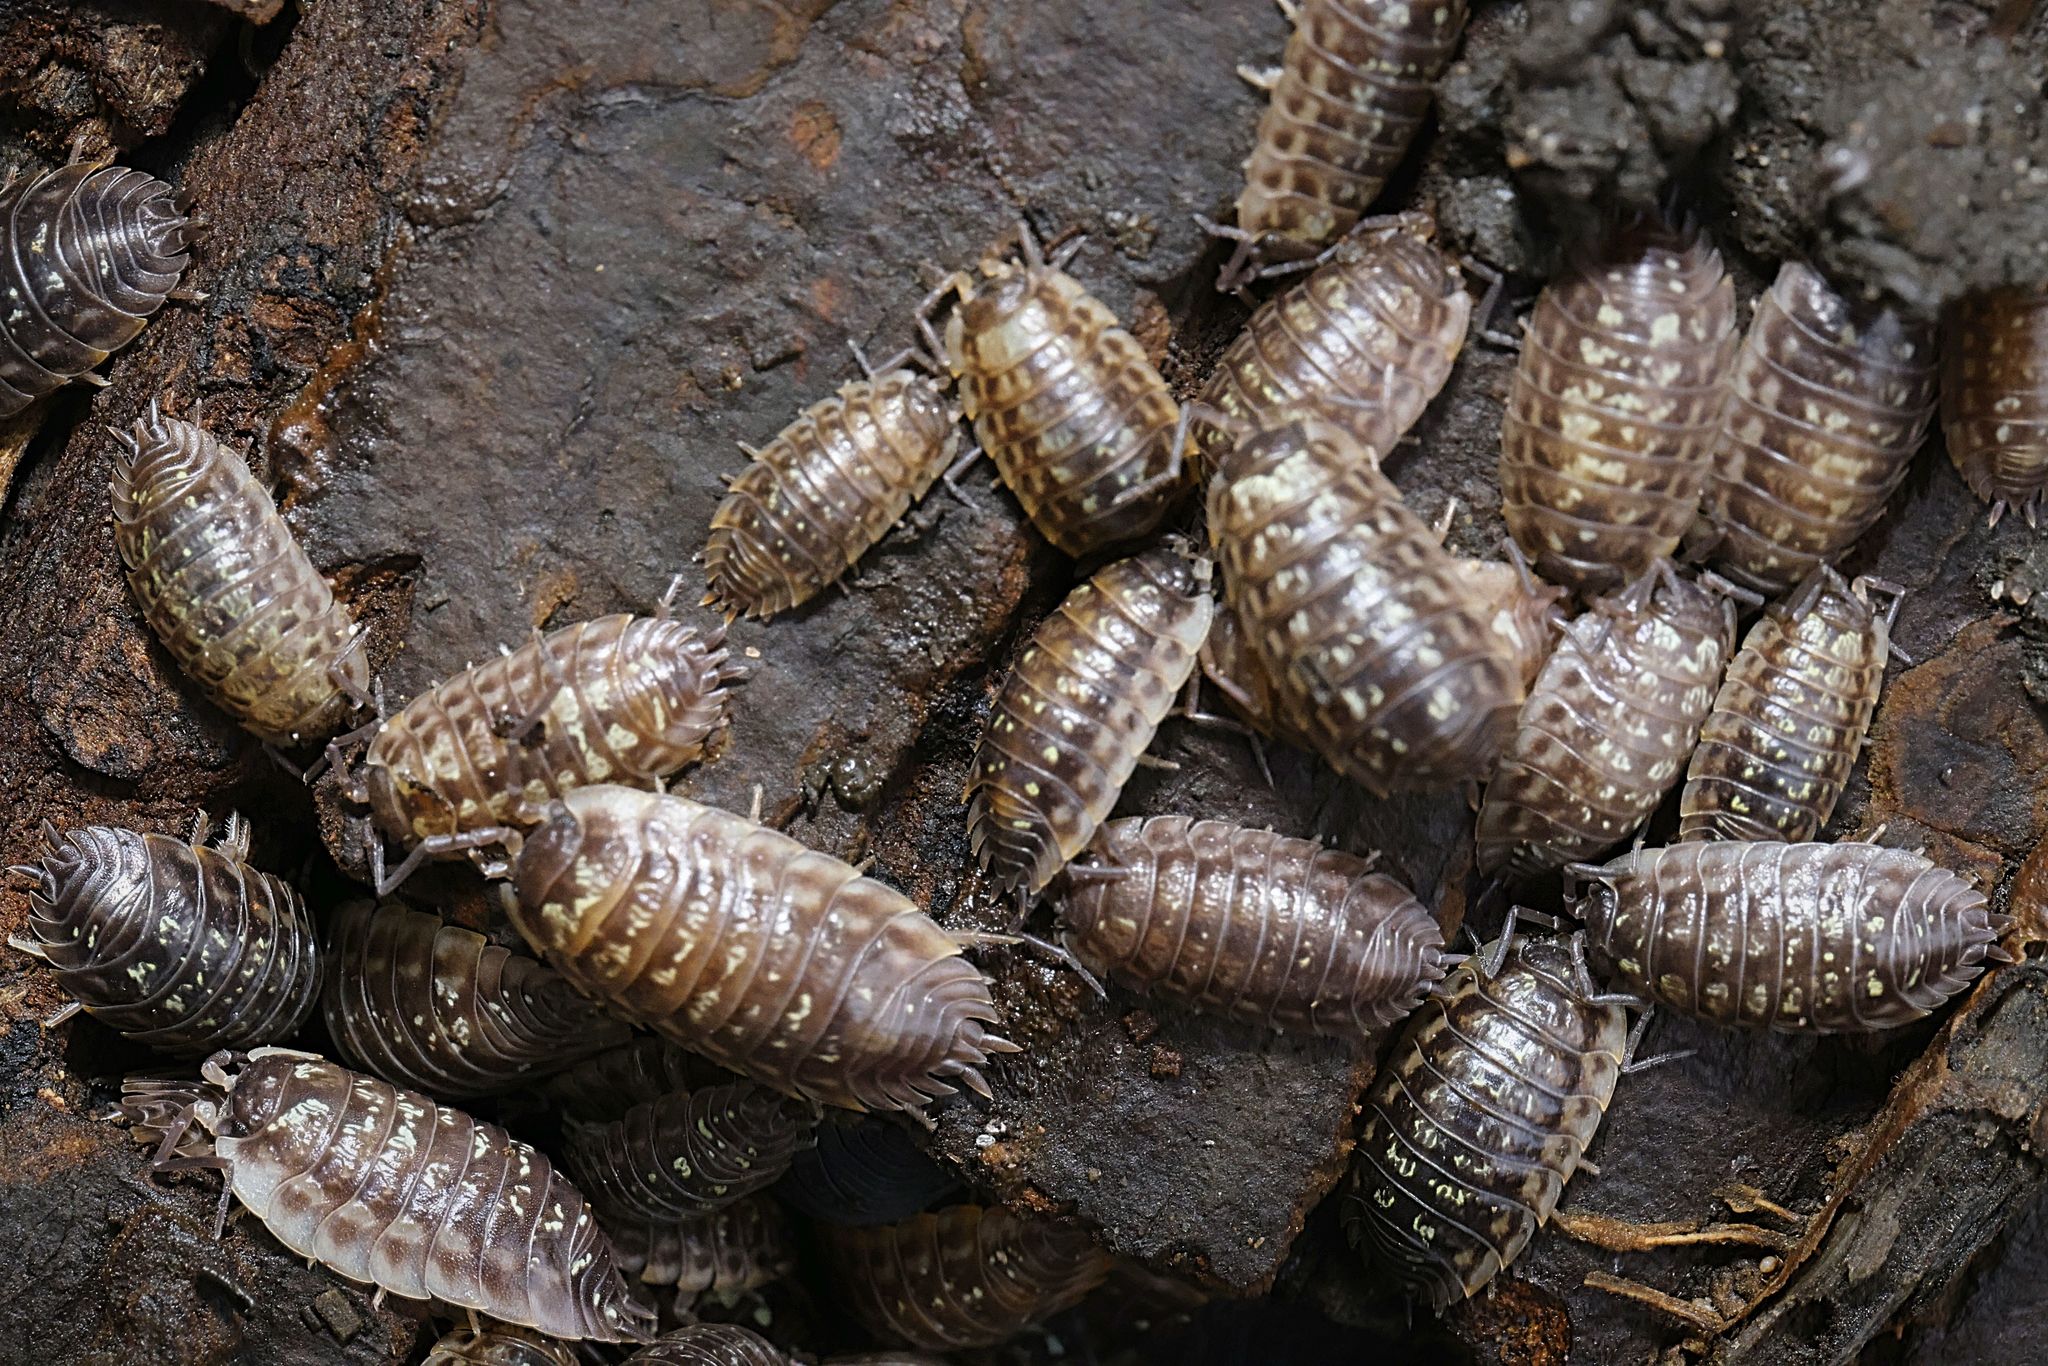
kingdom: Animalia
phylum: Arthropoda
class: Malacostraca
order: Isopoda
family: Oniscidae
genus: Oniscus
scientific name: Oniscus asellus
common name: Common shiny woodlouse
